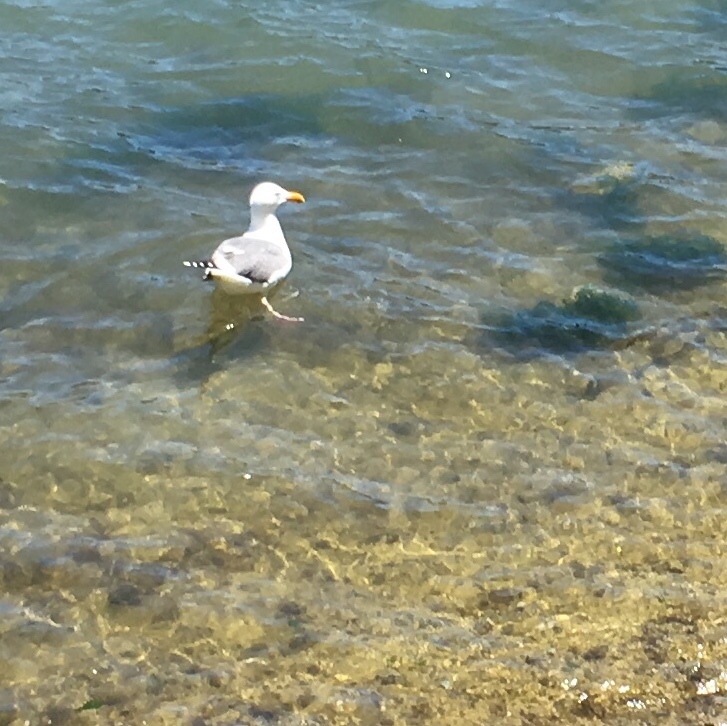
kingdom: Animalia
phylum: Chordata
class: Aves
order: Charadriiformes
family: Laridae
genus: Larus
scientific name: Larus occidentalis
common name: Western gull
